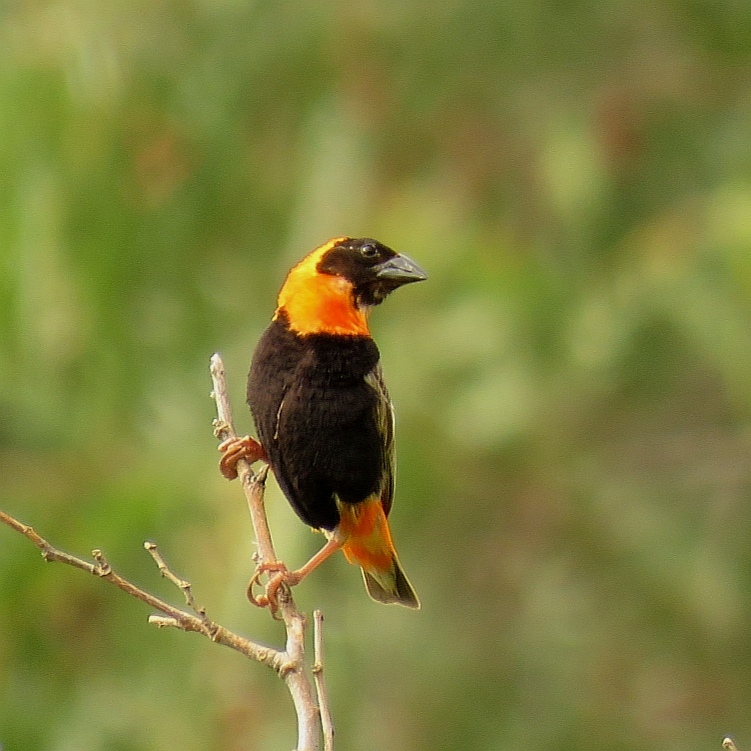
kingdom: Animalia
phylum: Chordata
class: Aves
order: Passeriformes
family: Ploceidae
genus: Euplectes
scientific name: Euplectes orix
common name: Southern red bishop
